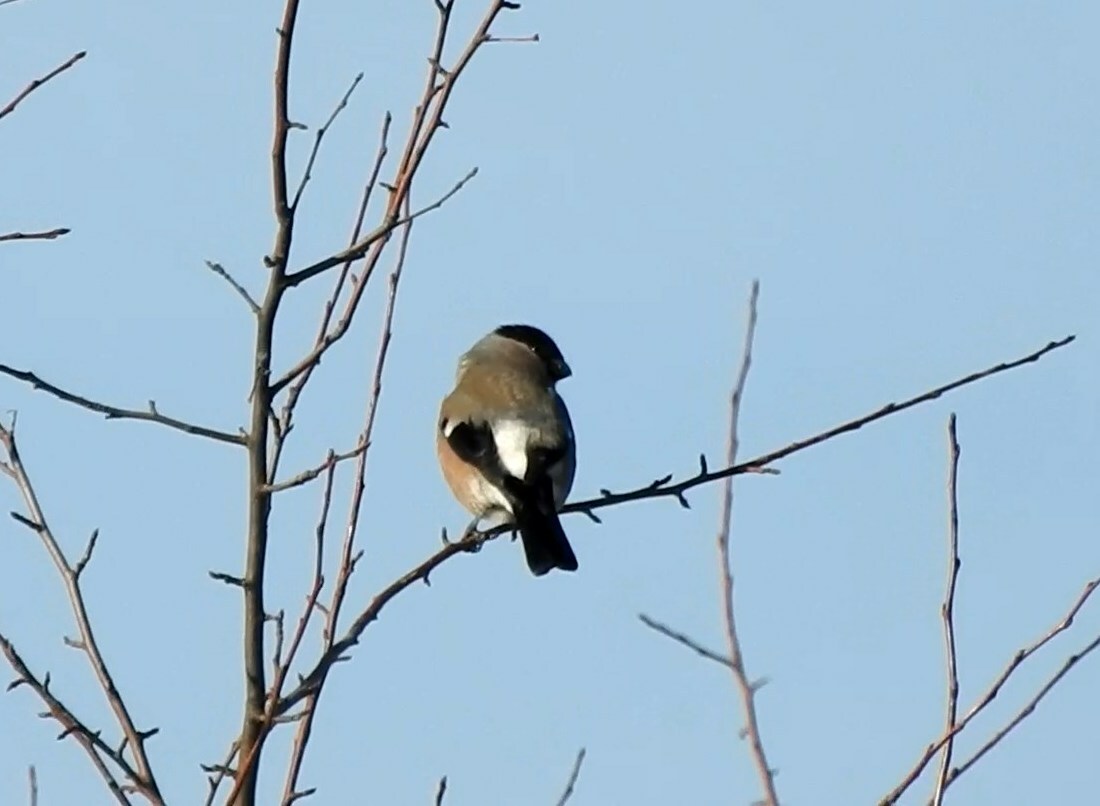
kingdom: Animalia
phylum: Chordata
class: Aves
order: Passeriformes
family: Fringillidae
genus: Pyrrhula
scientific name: Pyrrhula pyrrhula
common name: Eurasian bullfinch
